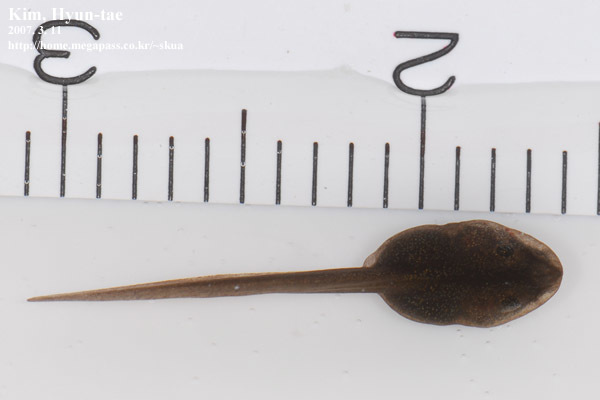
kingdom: Animalia
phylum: Chordata
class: Amphibia
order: Anura
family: Ranidae
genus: Rana
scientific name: Rana huanrenensis
